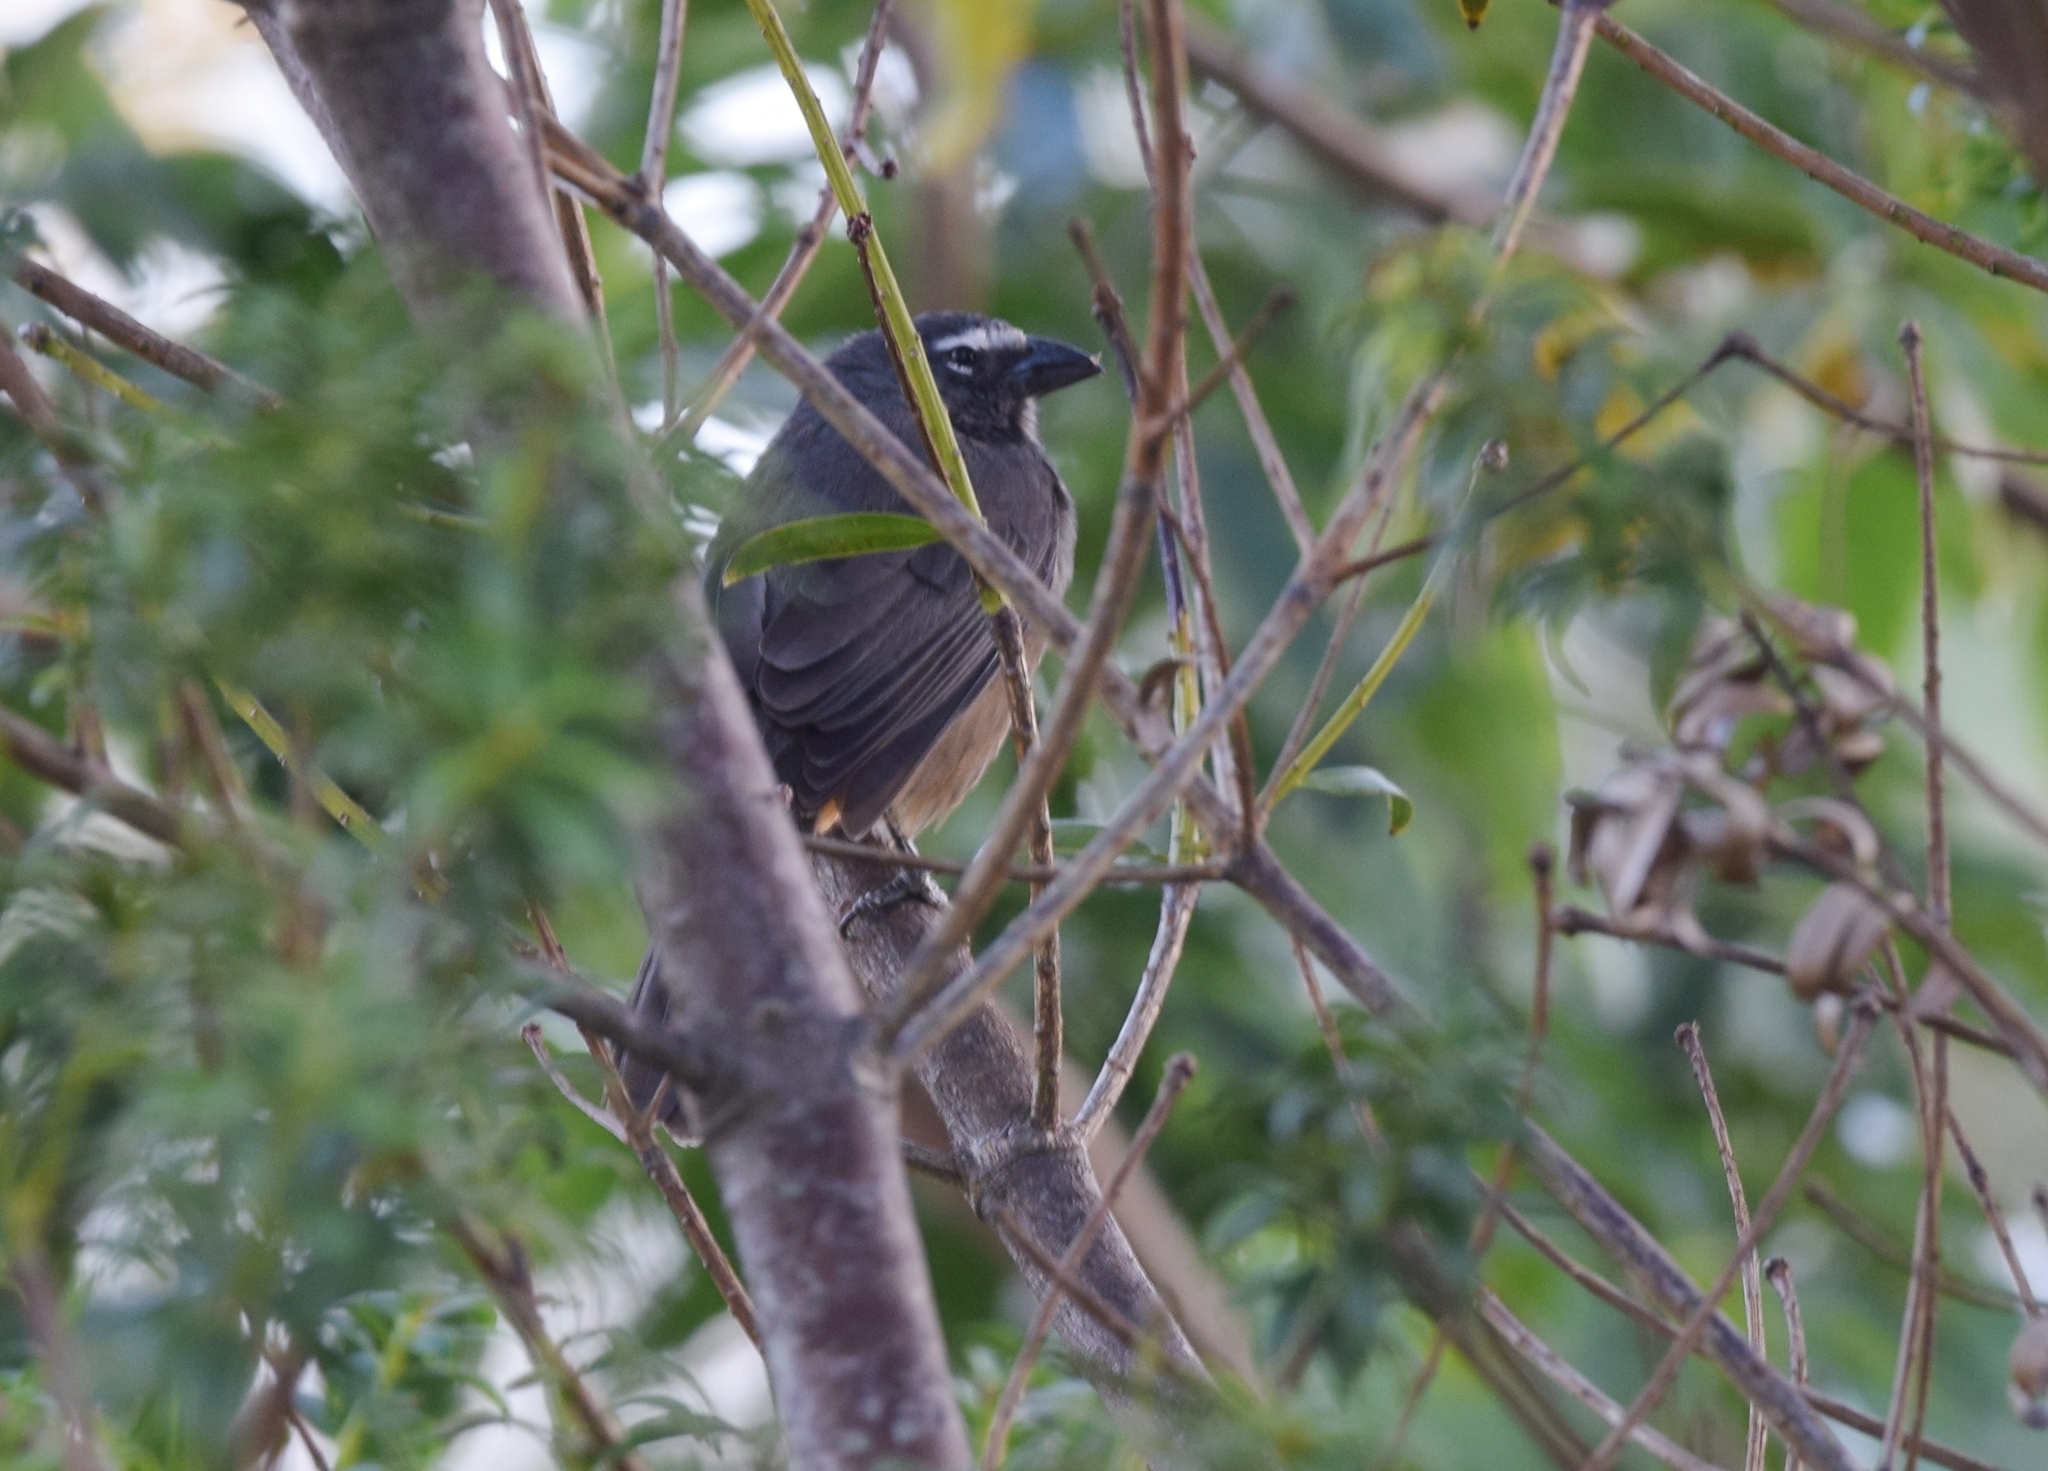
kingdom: Animalia
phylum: Chordata
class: Aves
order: Passeriformes
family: Thraupidae
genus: Saltator
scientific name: Saltator grandis
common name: Cinnamon-bellied saltator
